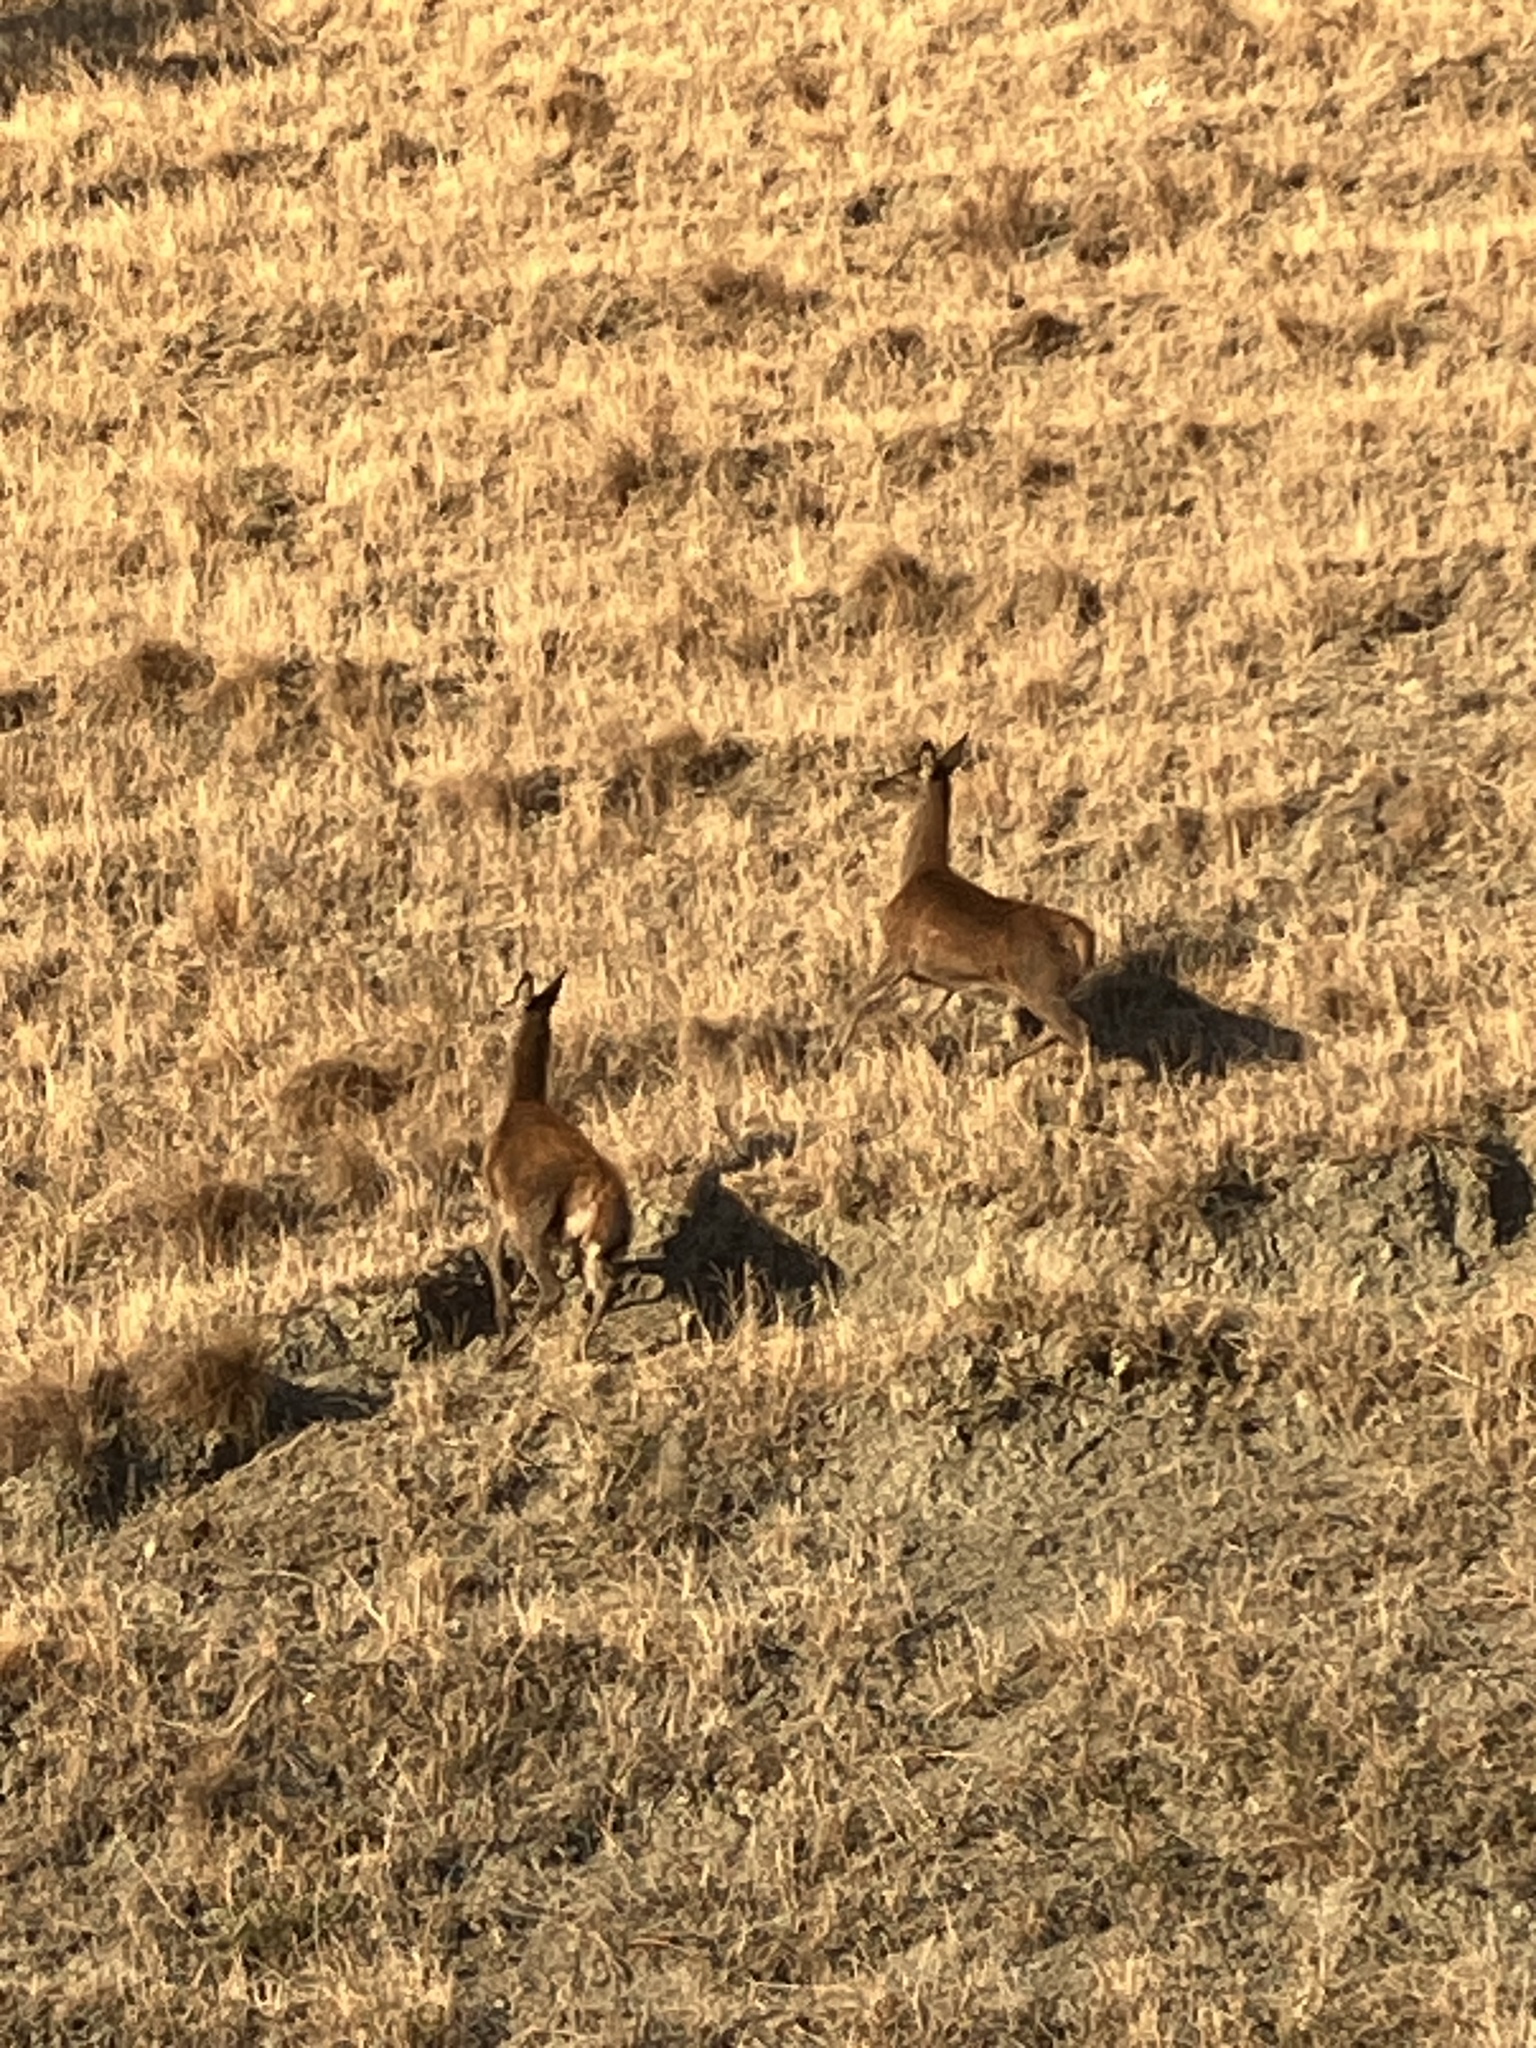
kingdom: Animalia
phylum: Chordata
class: Mammalia
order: Artiodactyla
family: Cervidae
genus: Cervus
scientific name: Cervus elaphus
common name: Red deer
